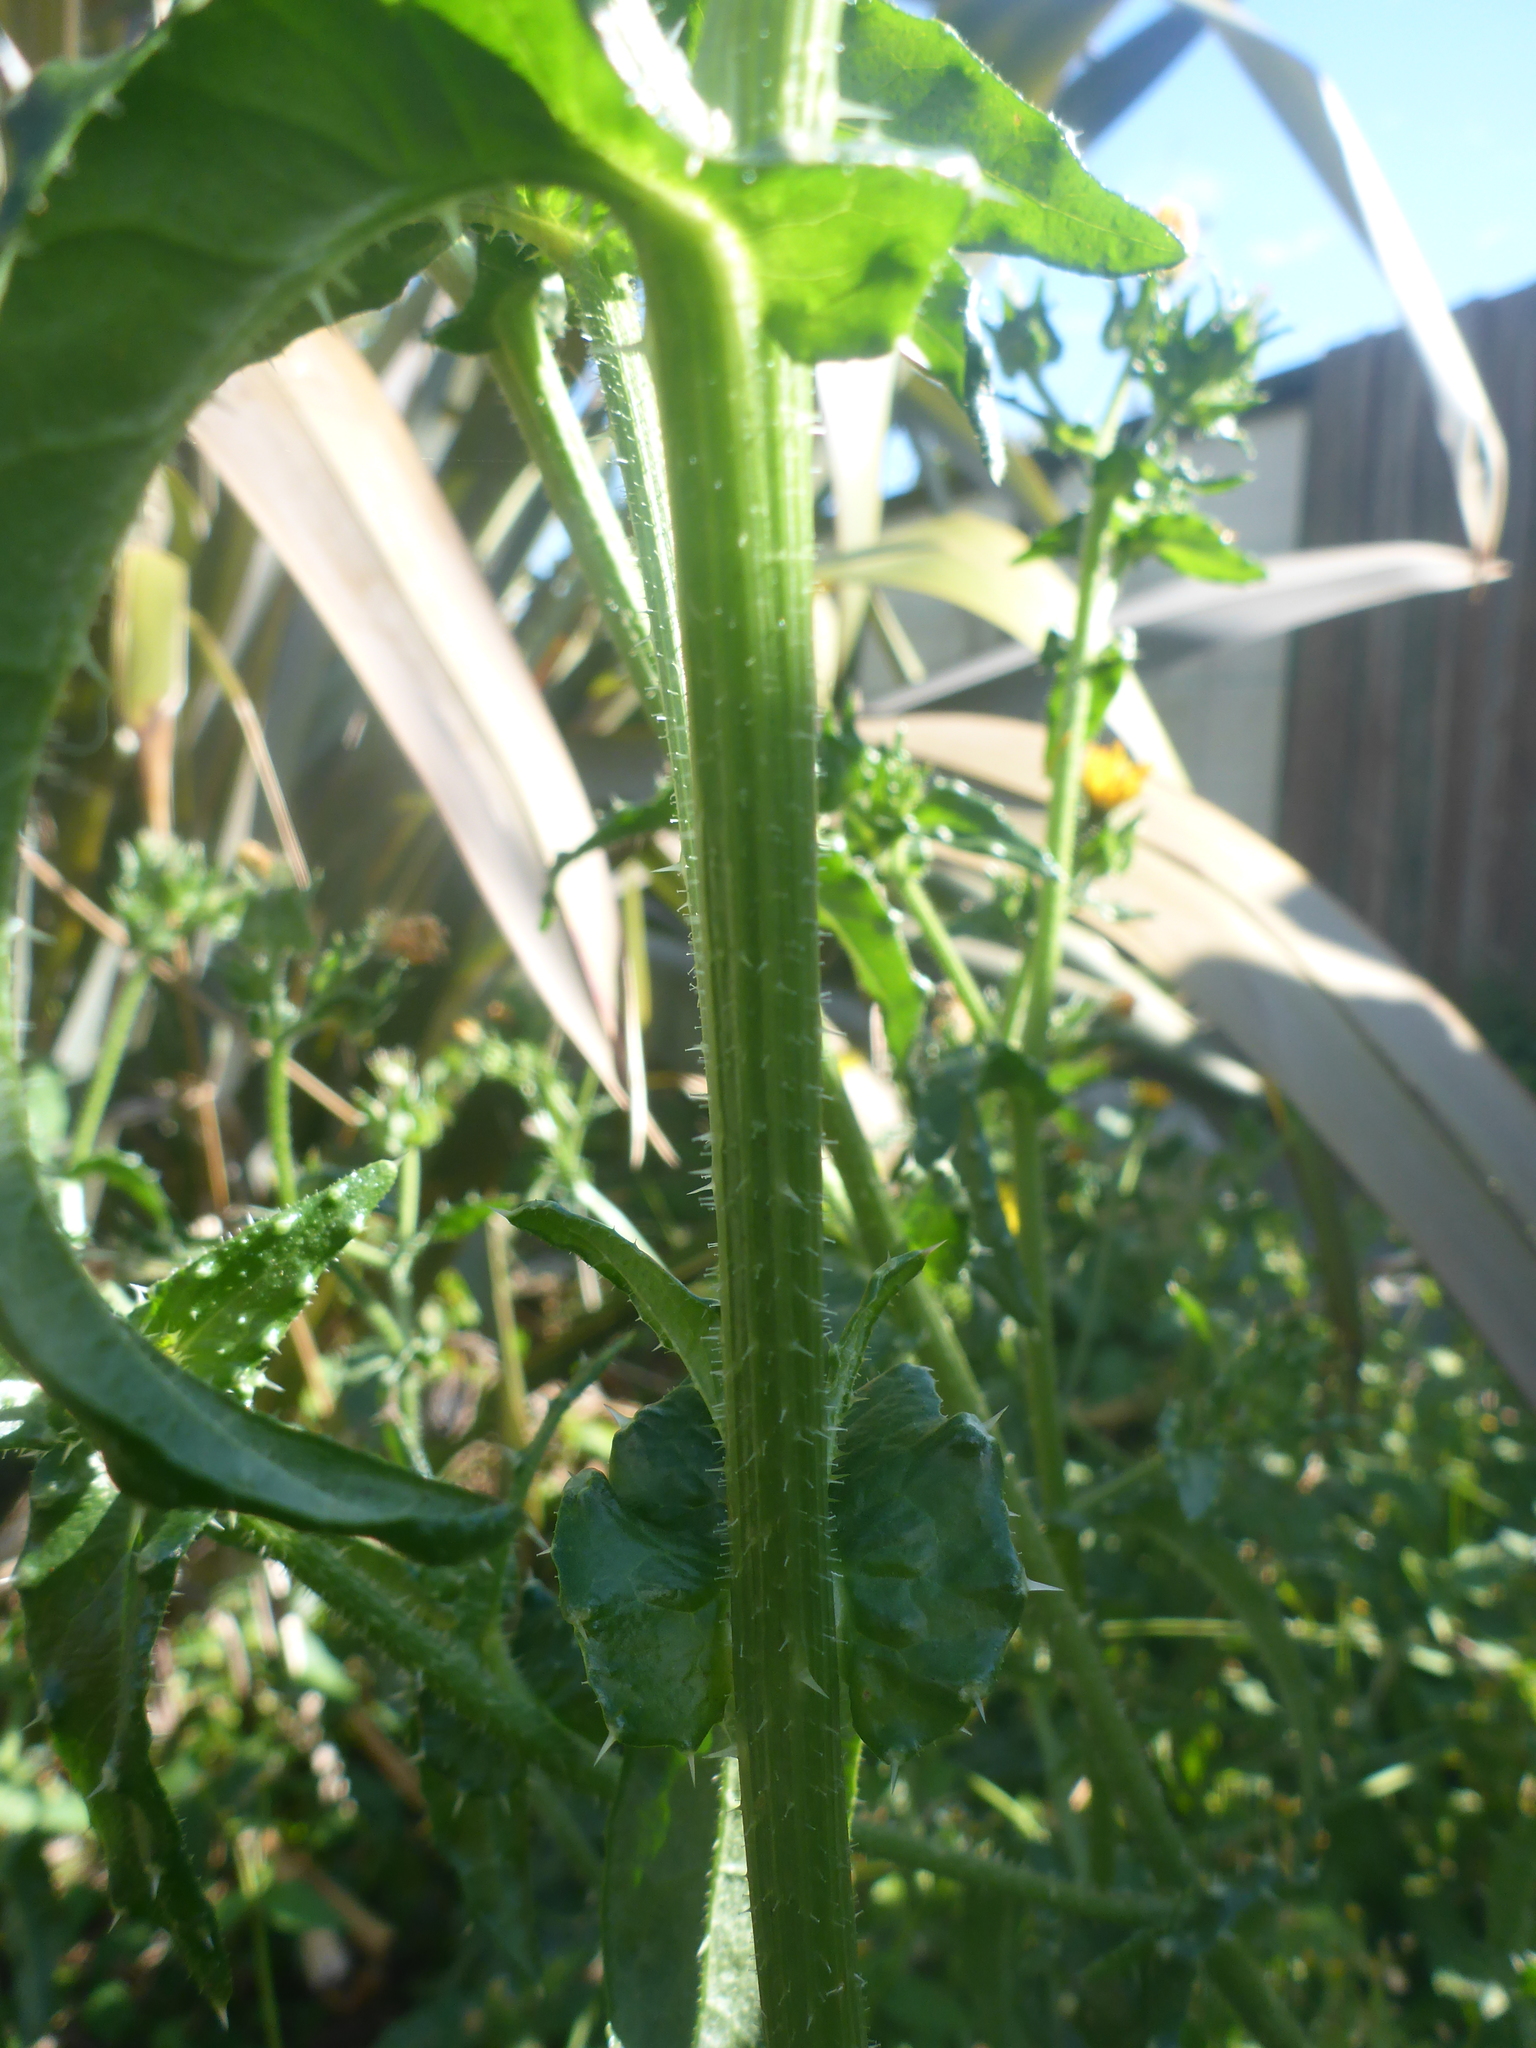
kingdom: Plantae
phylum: Tracheophyta
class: Magnoliopsida
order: Asterales
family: Asteraceae
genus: Helminthotheca
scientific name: Helminthotheca echioides
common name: Ox-tongue
